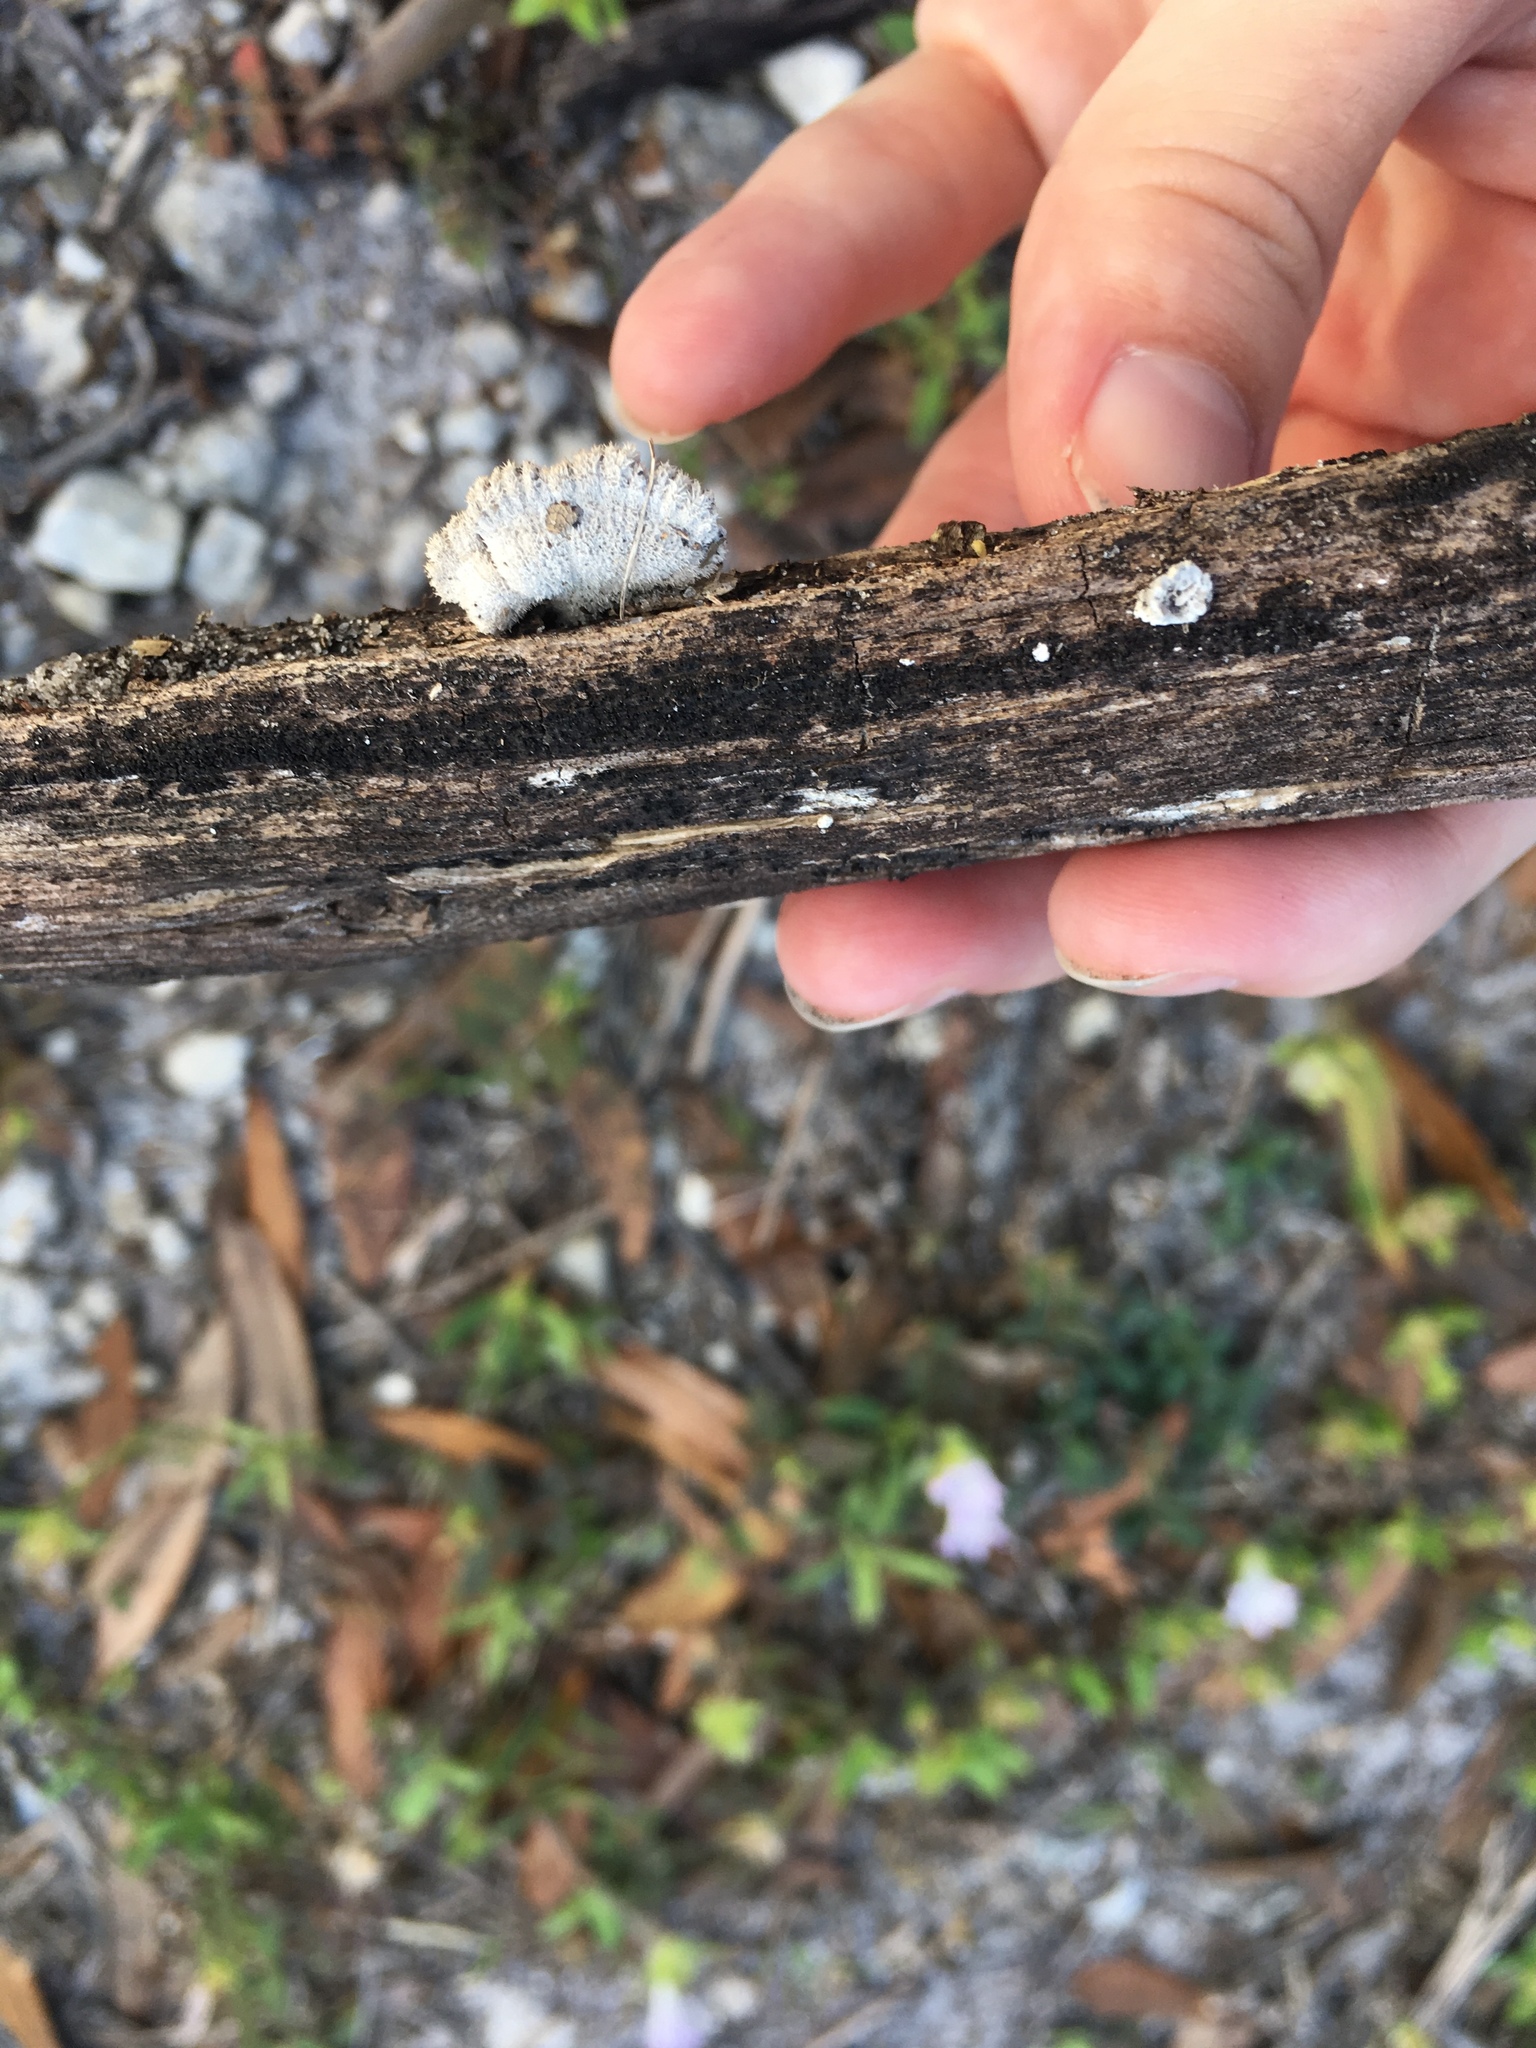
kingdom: Fungi
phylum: Basidiomycota
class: Agaricomycetes
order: Agaricales
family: Schizophyllaceae
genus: Schizophyllum
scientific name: Schizophyllum commune
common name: Common porecrust
